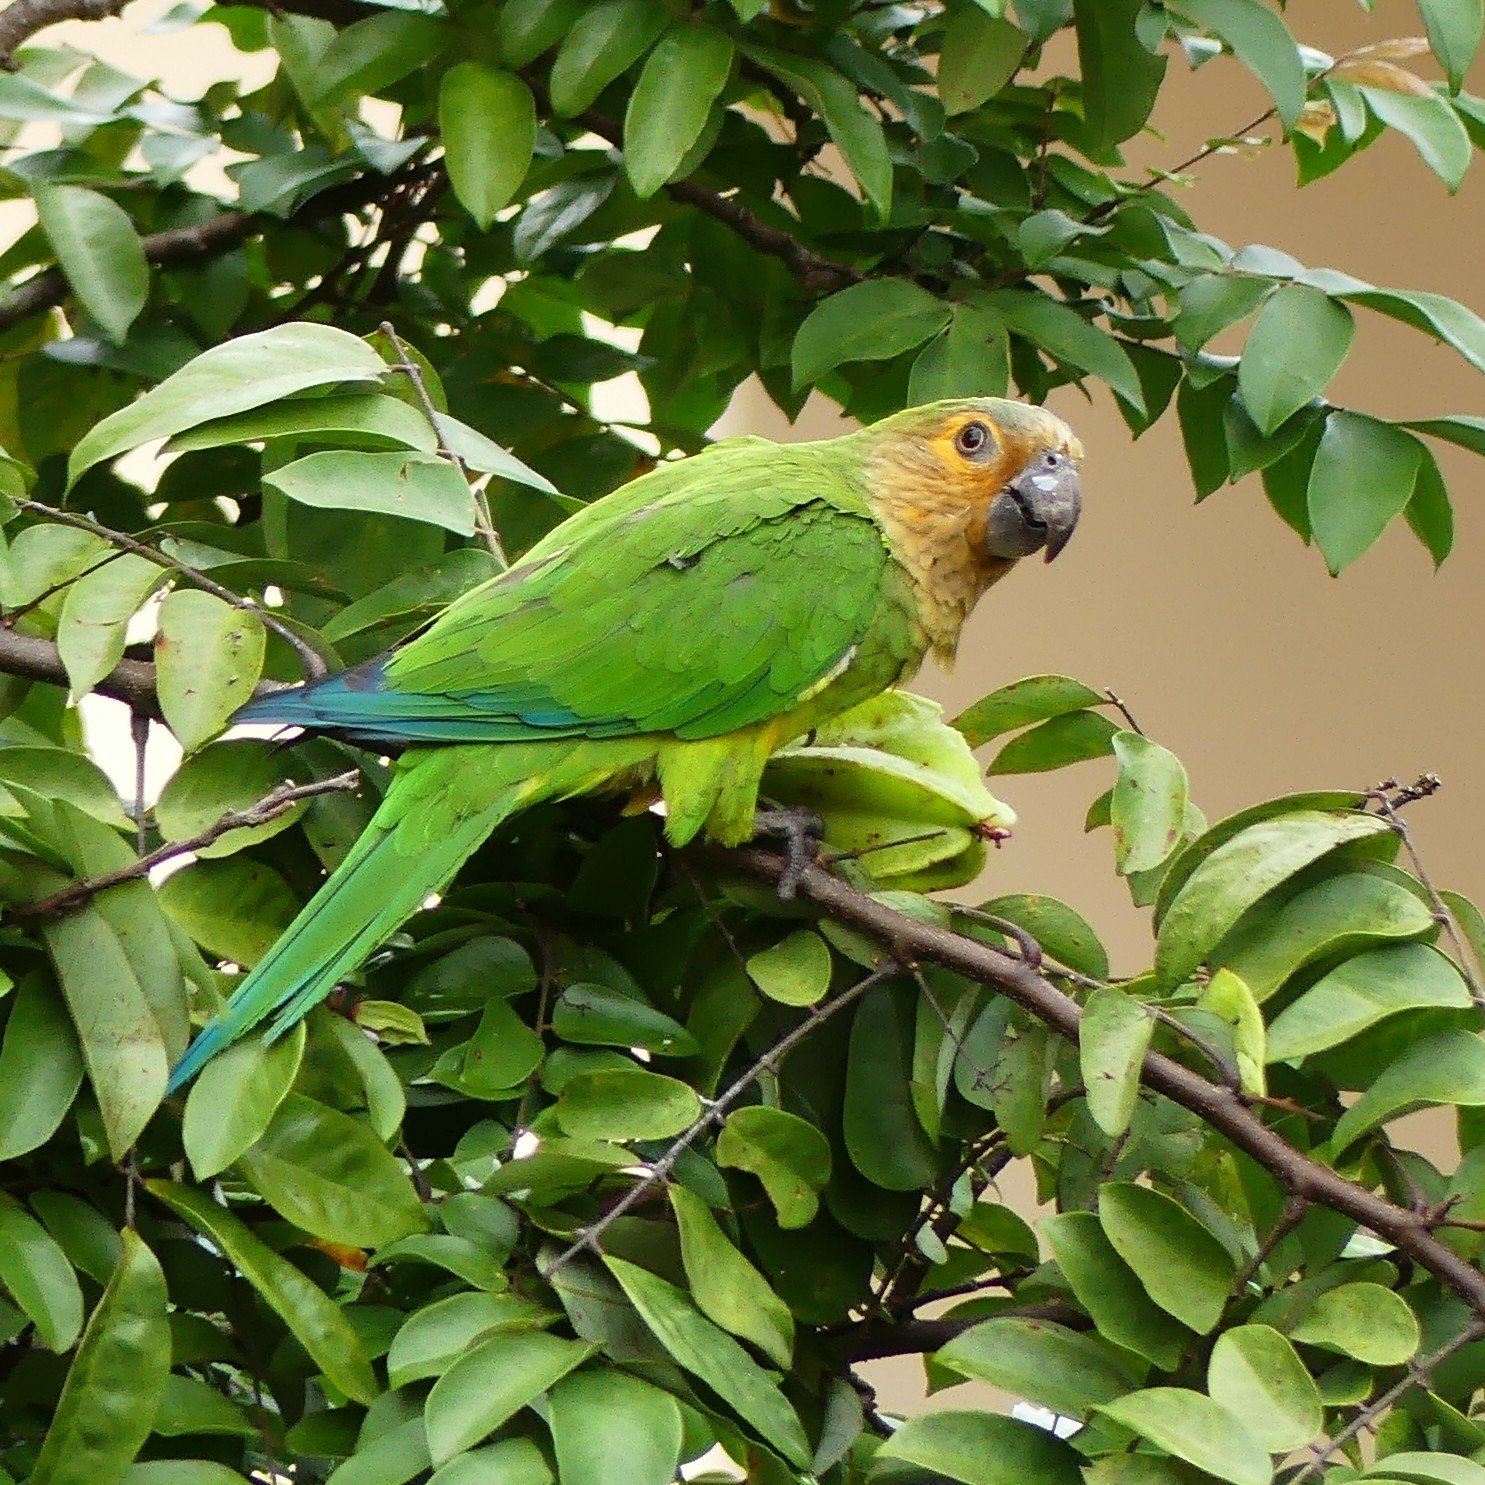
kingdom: Animalia
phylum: Chordata
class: Aves
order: Psittaciformes
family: Psittacidae
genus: Aratinga
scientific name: Aratinga pertinax
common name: Brown-throated parakeet
